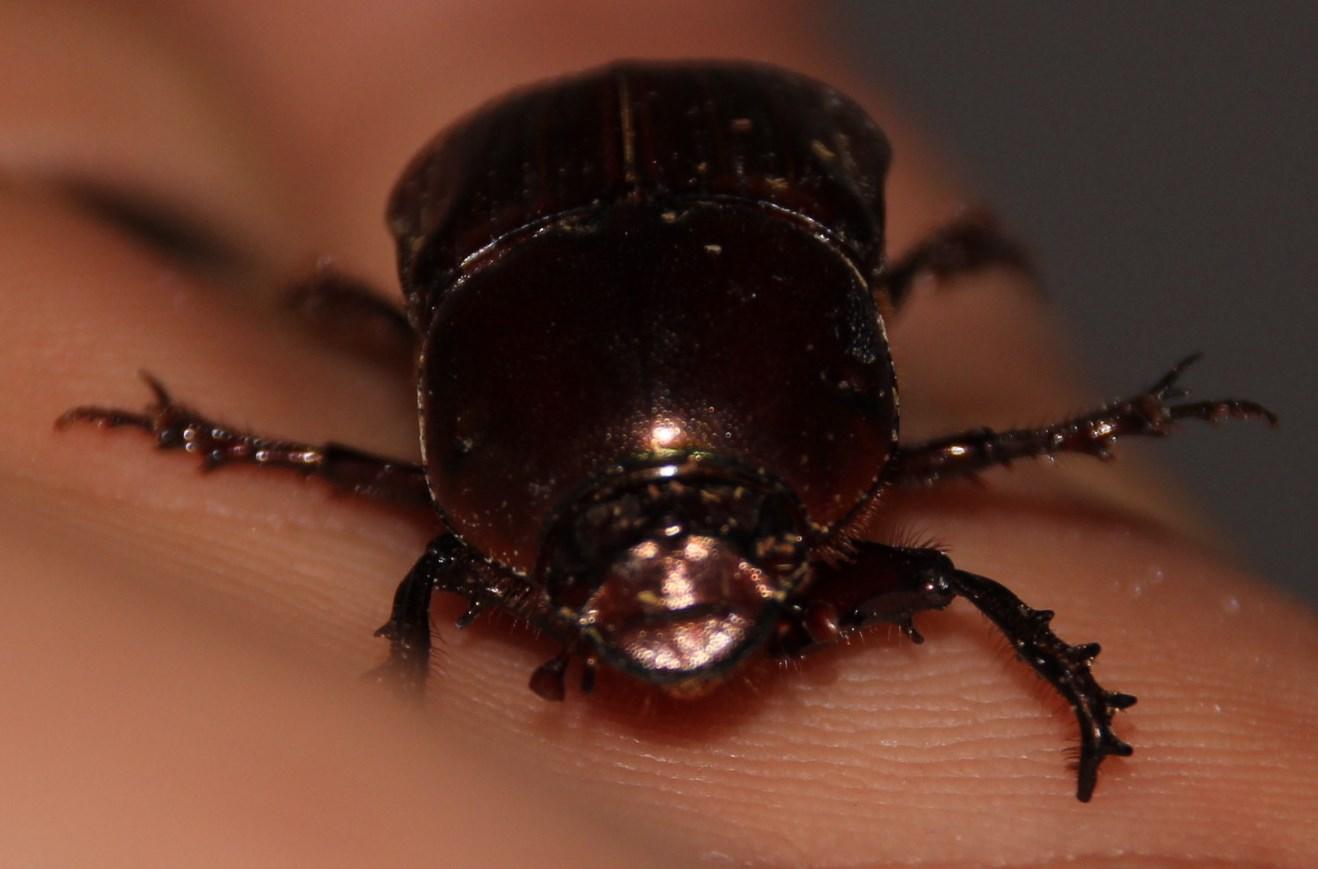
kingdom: Animalia
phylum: Arthropoda
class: Insecta
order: Coleoptera
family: Scarabaeidae
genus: Onitis
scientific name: Onitis aygulus
